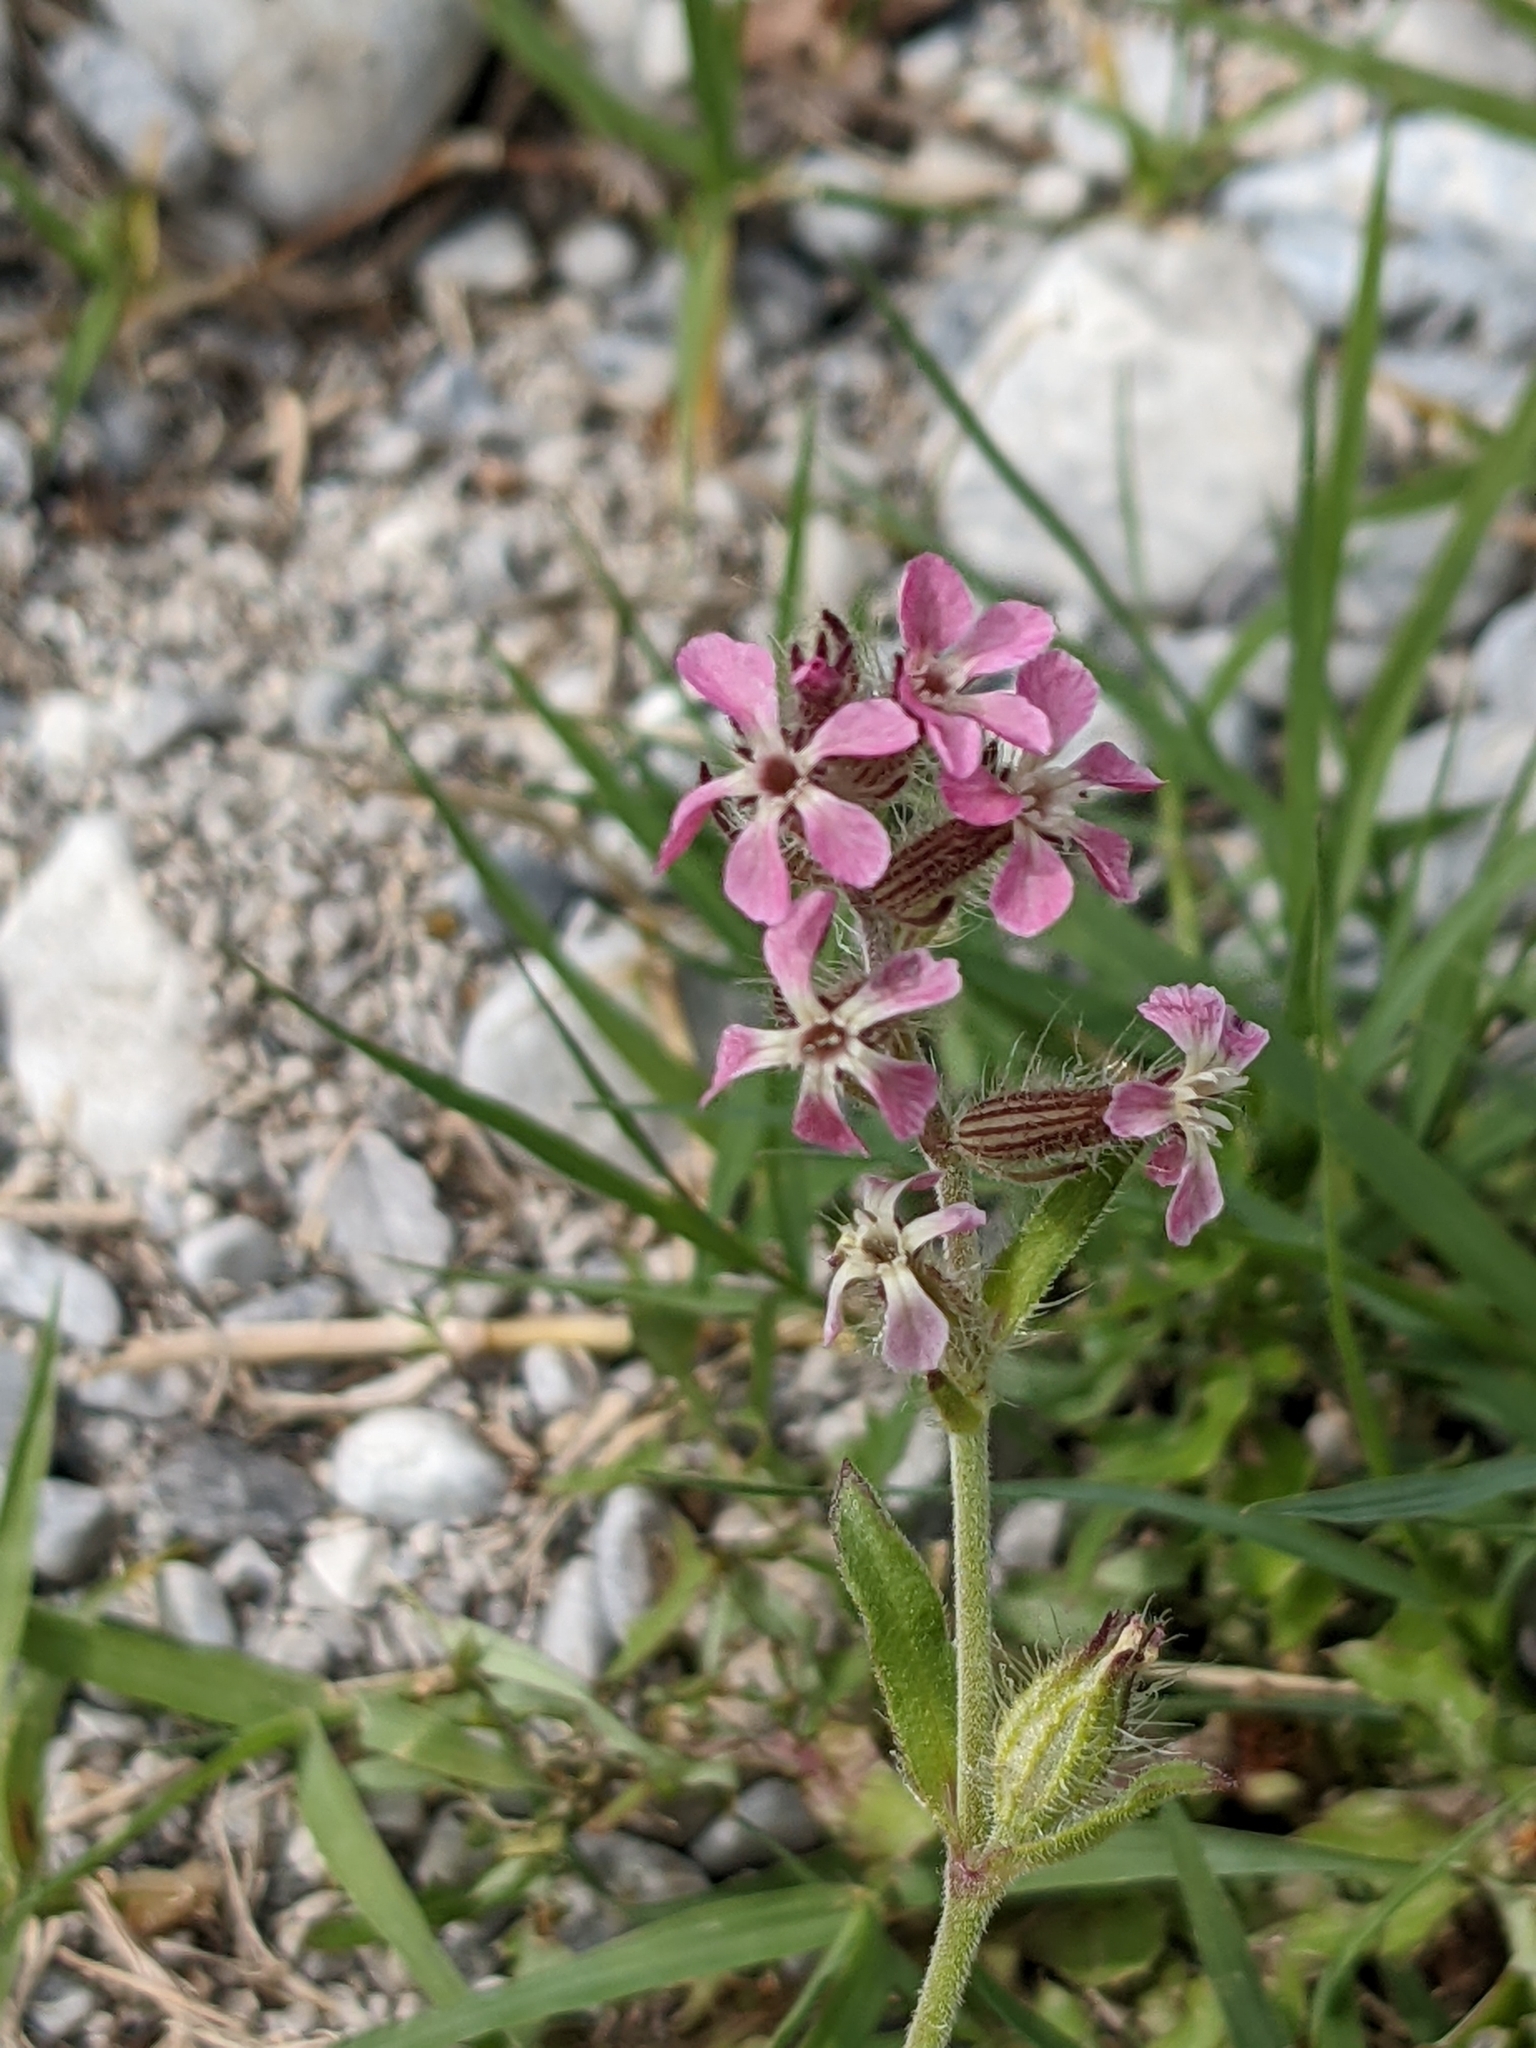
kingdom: Plantae
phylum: Tracheophyta
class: Magnoliopsida
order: Caryophyllales
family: Caryophyllaceae
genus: Silene
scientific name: Silene gallica
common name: Small-flowered catchfly
